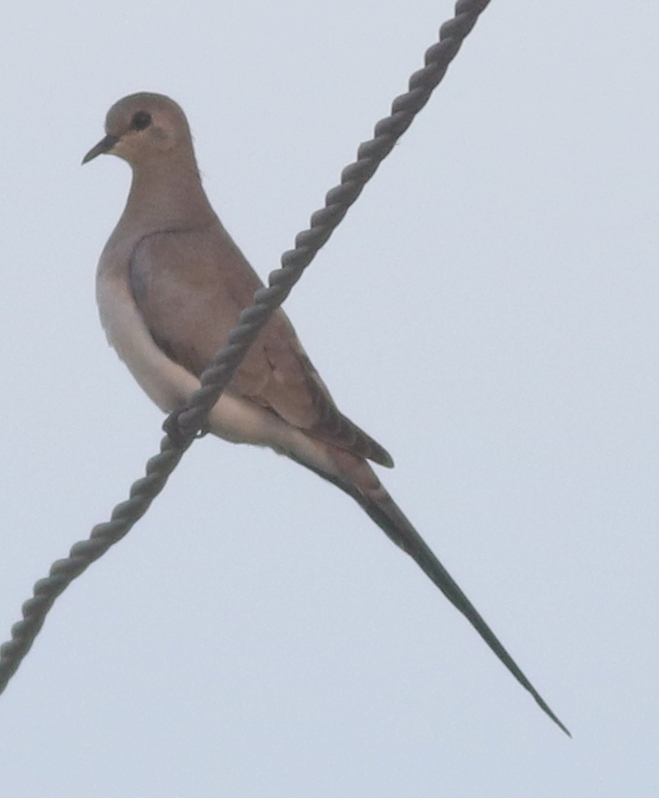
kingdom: Animalia
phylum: Chordata
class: Aves
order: Columbiformes
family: Columbidae
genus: Oena
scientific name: Oena capensis
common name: Namaqua dove
